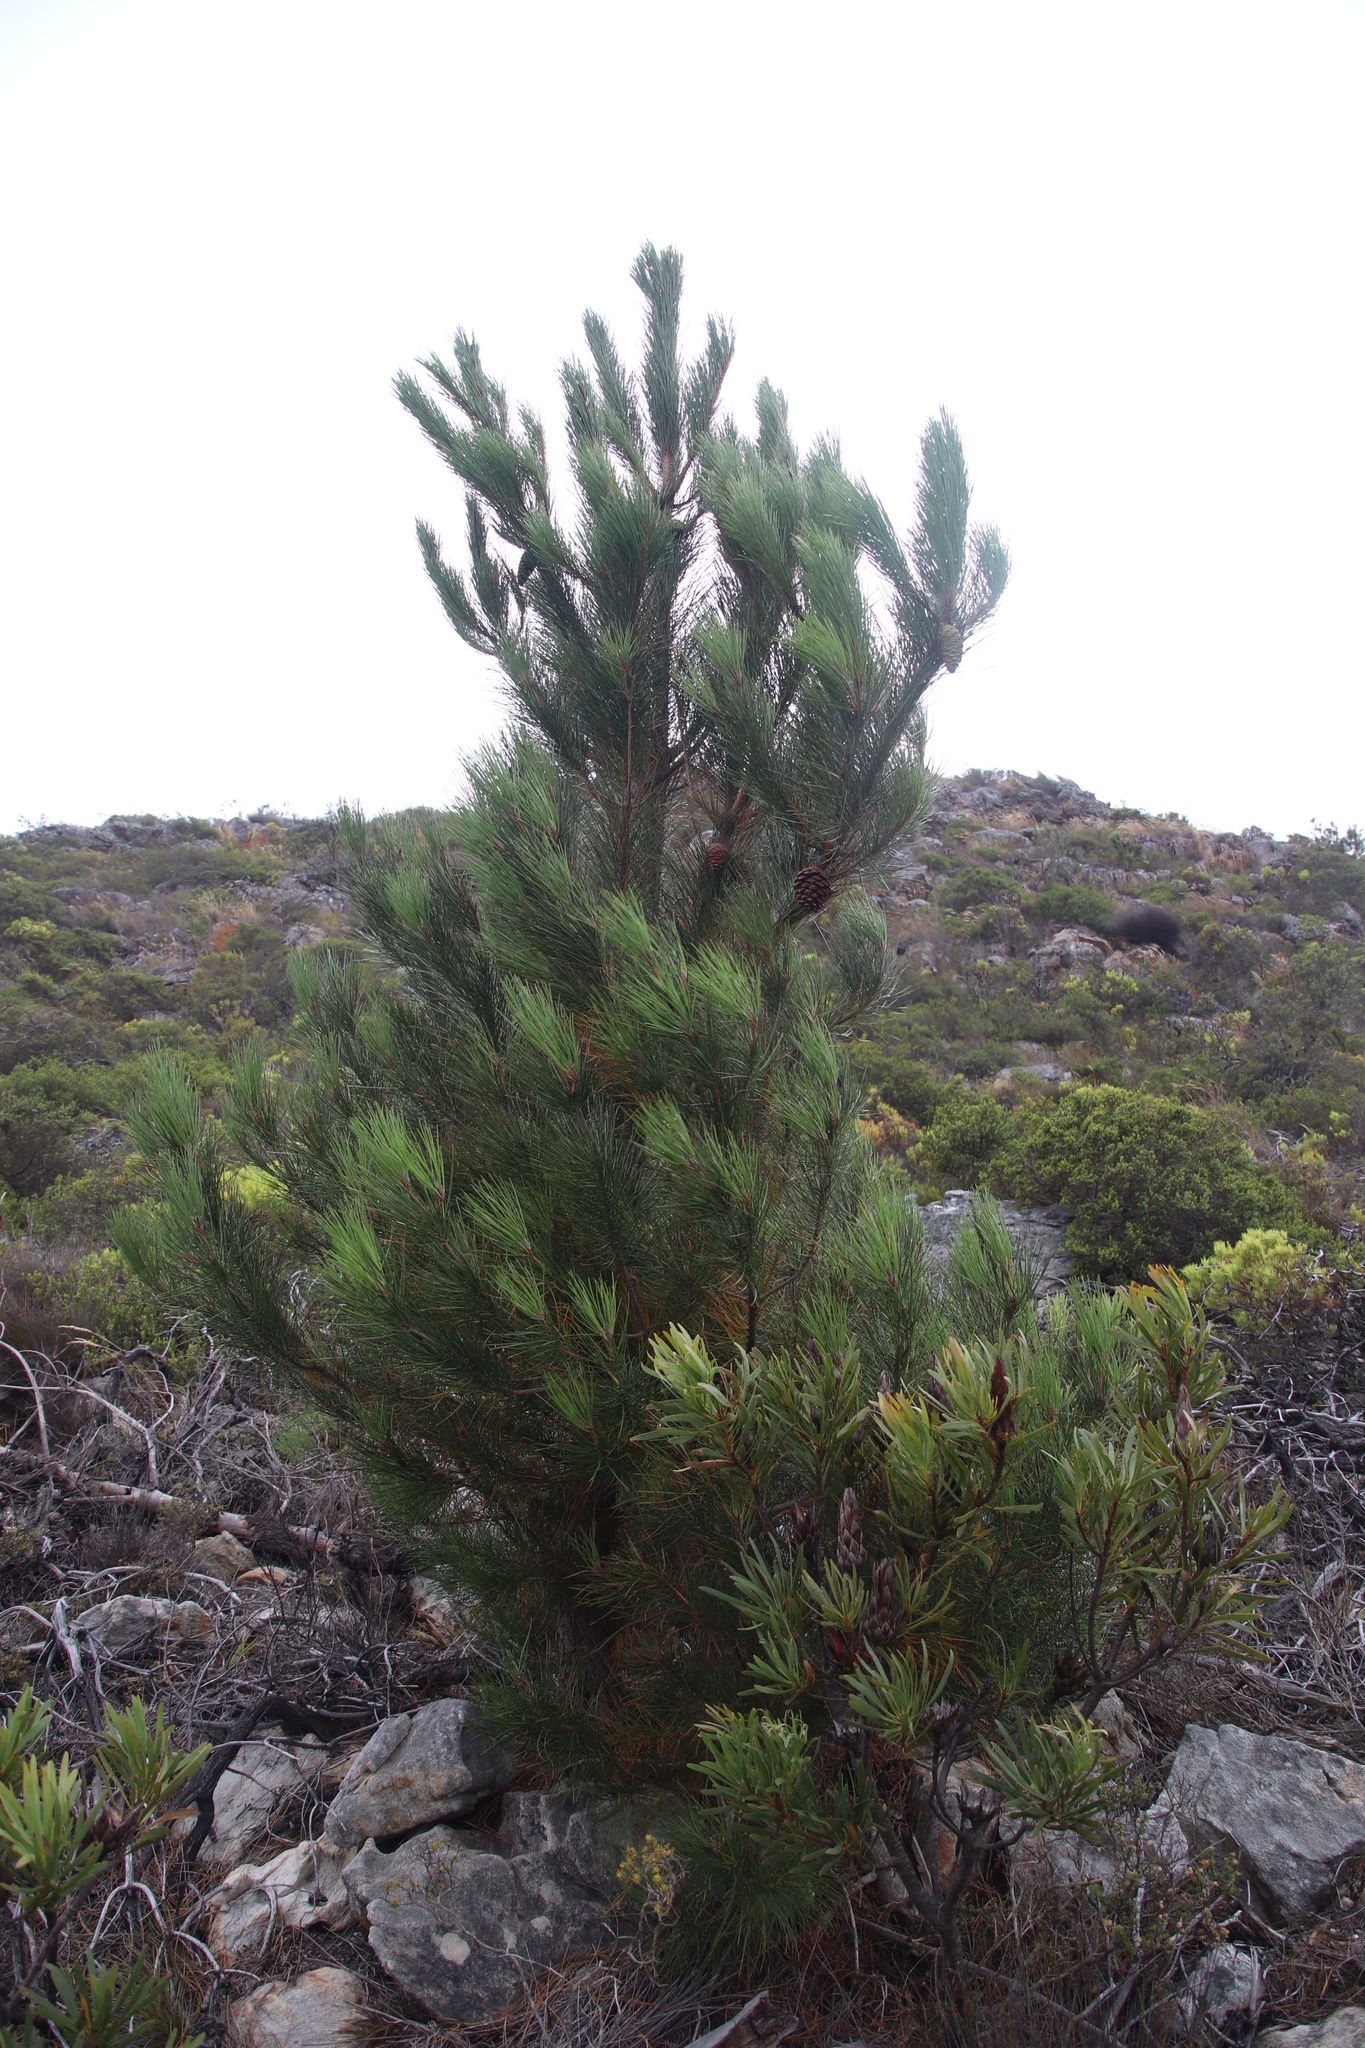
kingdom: Plantae
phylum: Tracheophyta
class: Pinopsida
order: Pinales
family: Pinaceae
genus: Pinus
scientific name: Pinus pinaster
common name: Maritime pine
